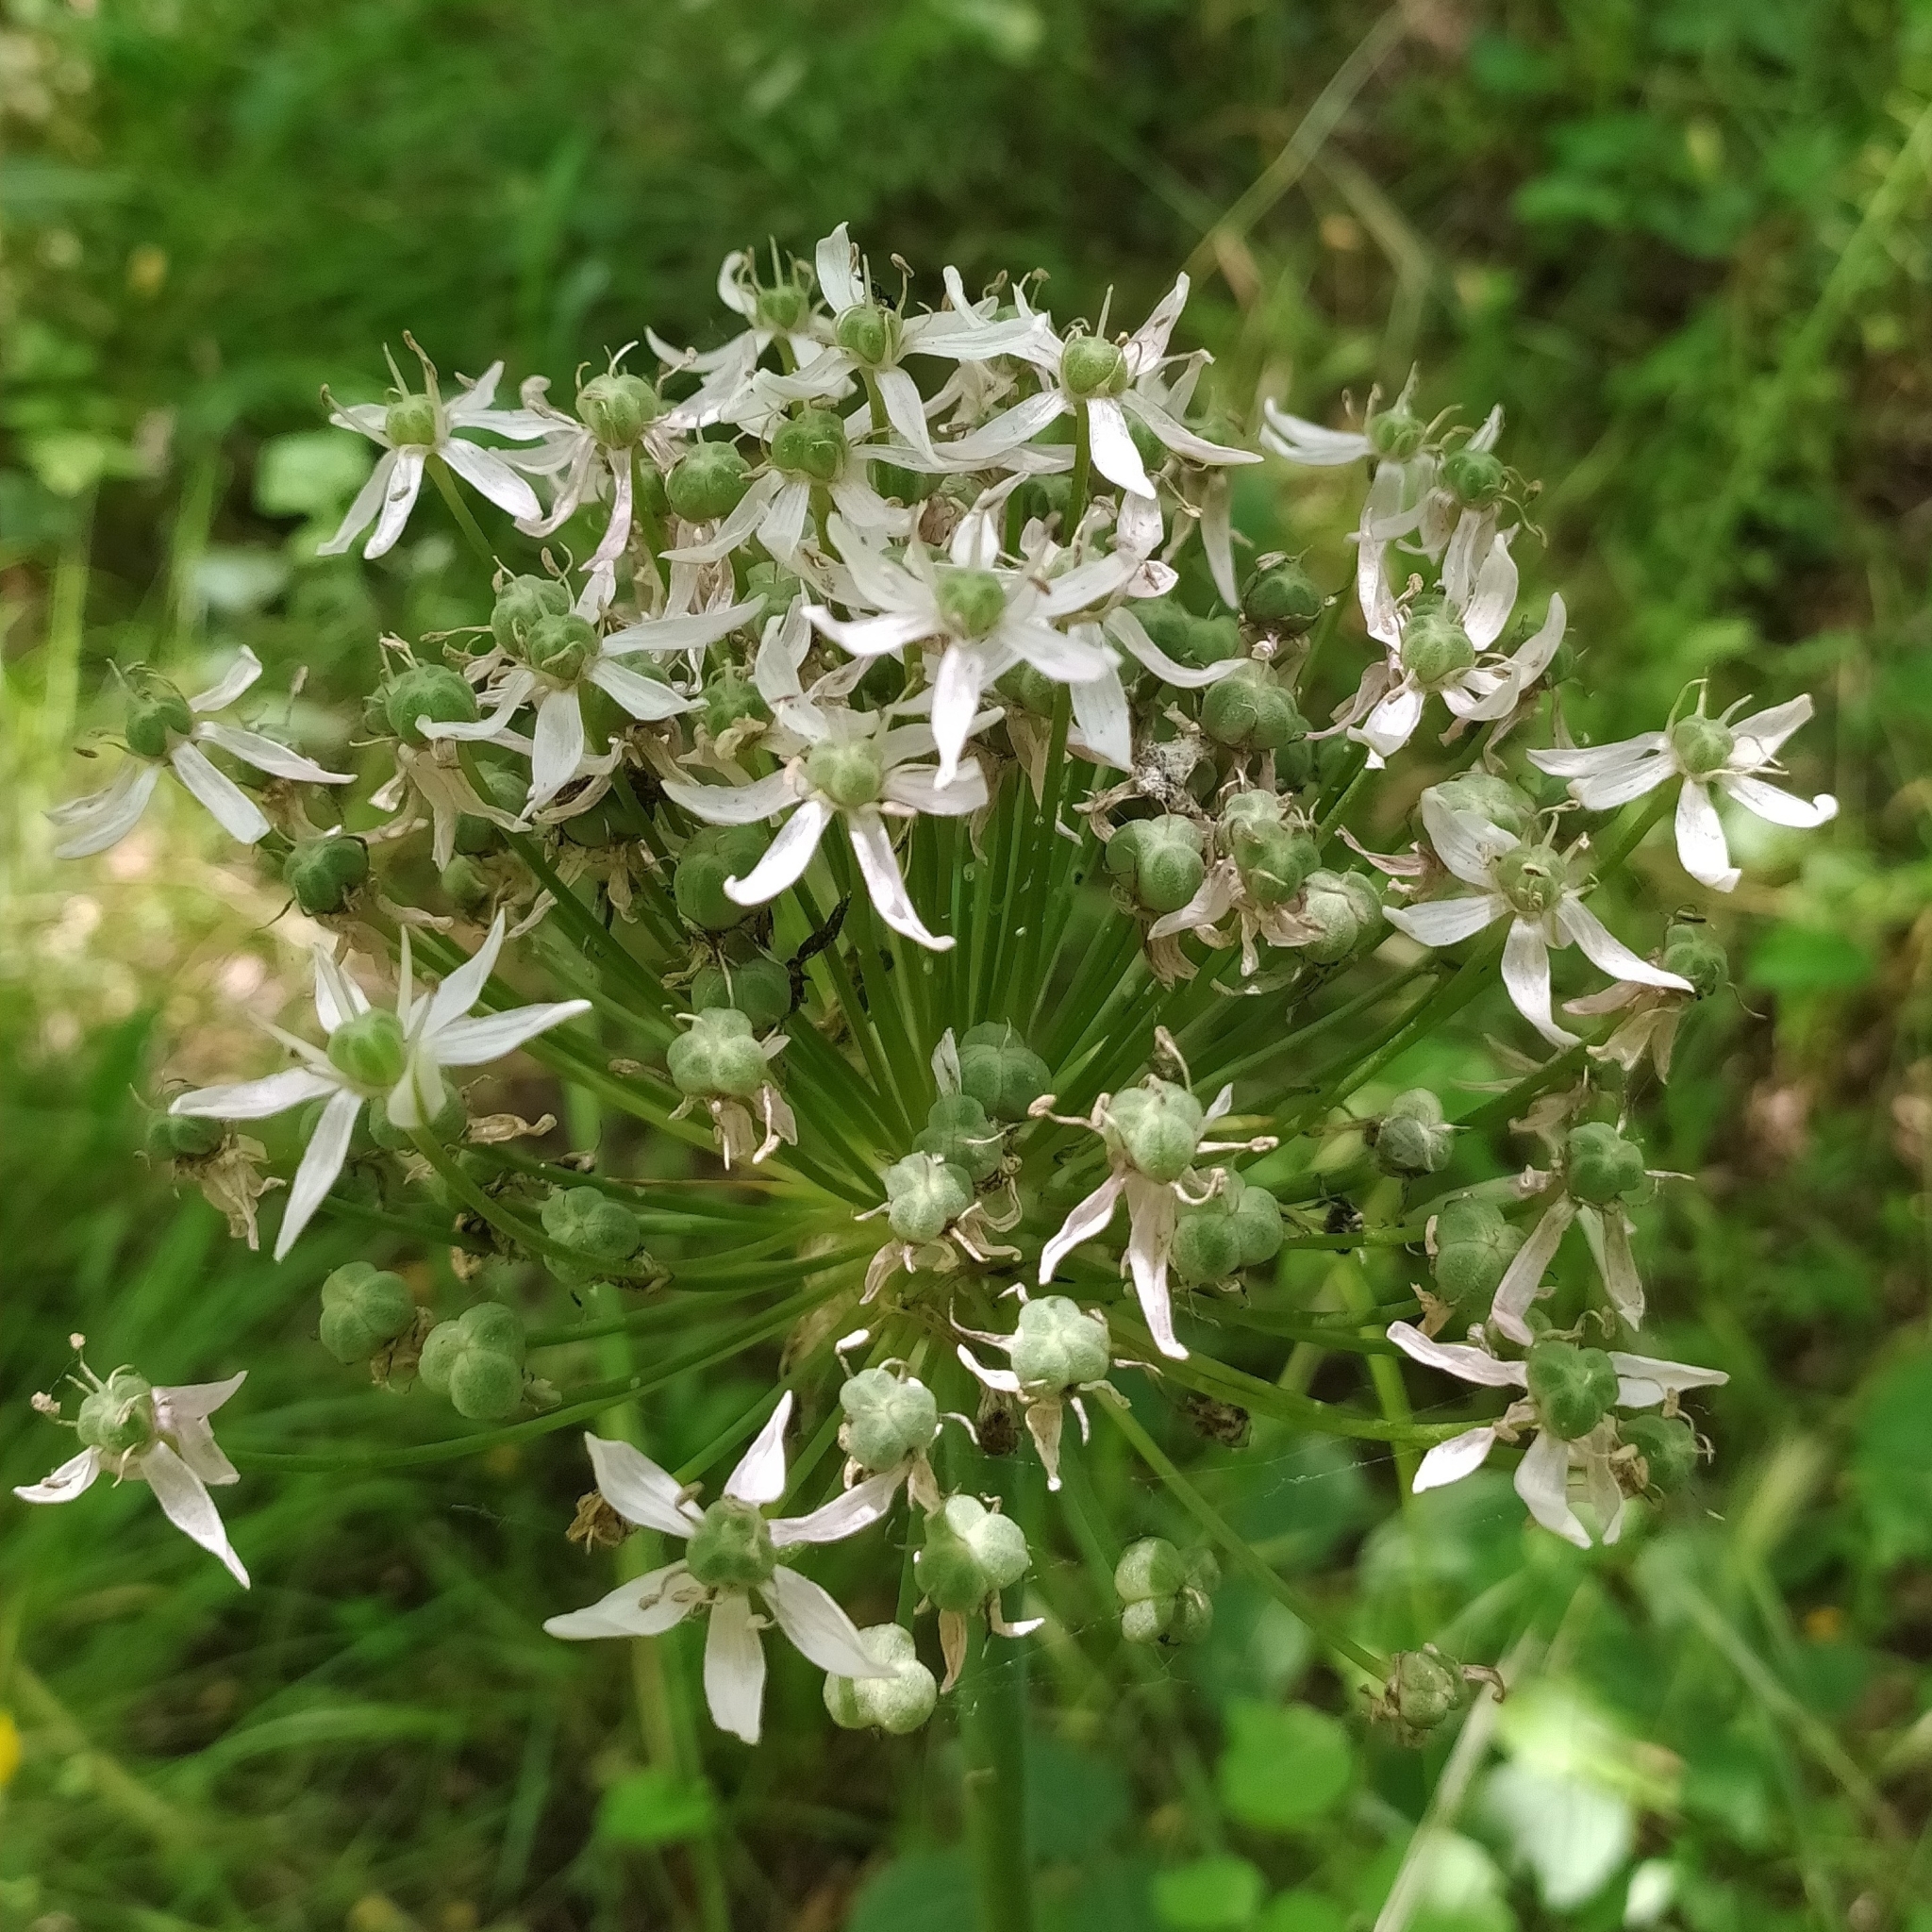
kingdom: Plantae
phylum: Tracheophyta
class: Liliopsida
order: Asparagales
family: Amaryllidaceae
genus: Allium
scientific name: Allium nigrum
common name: Black garlic
